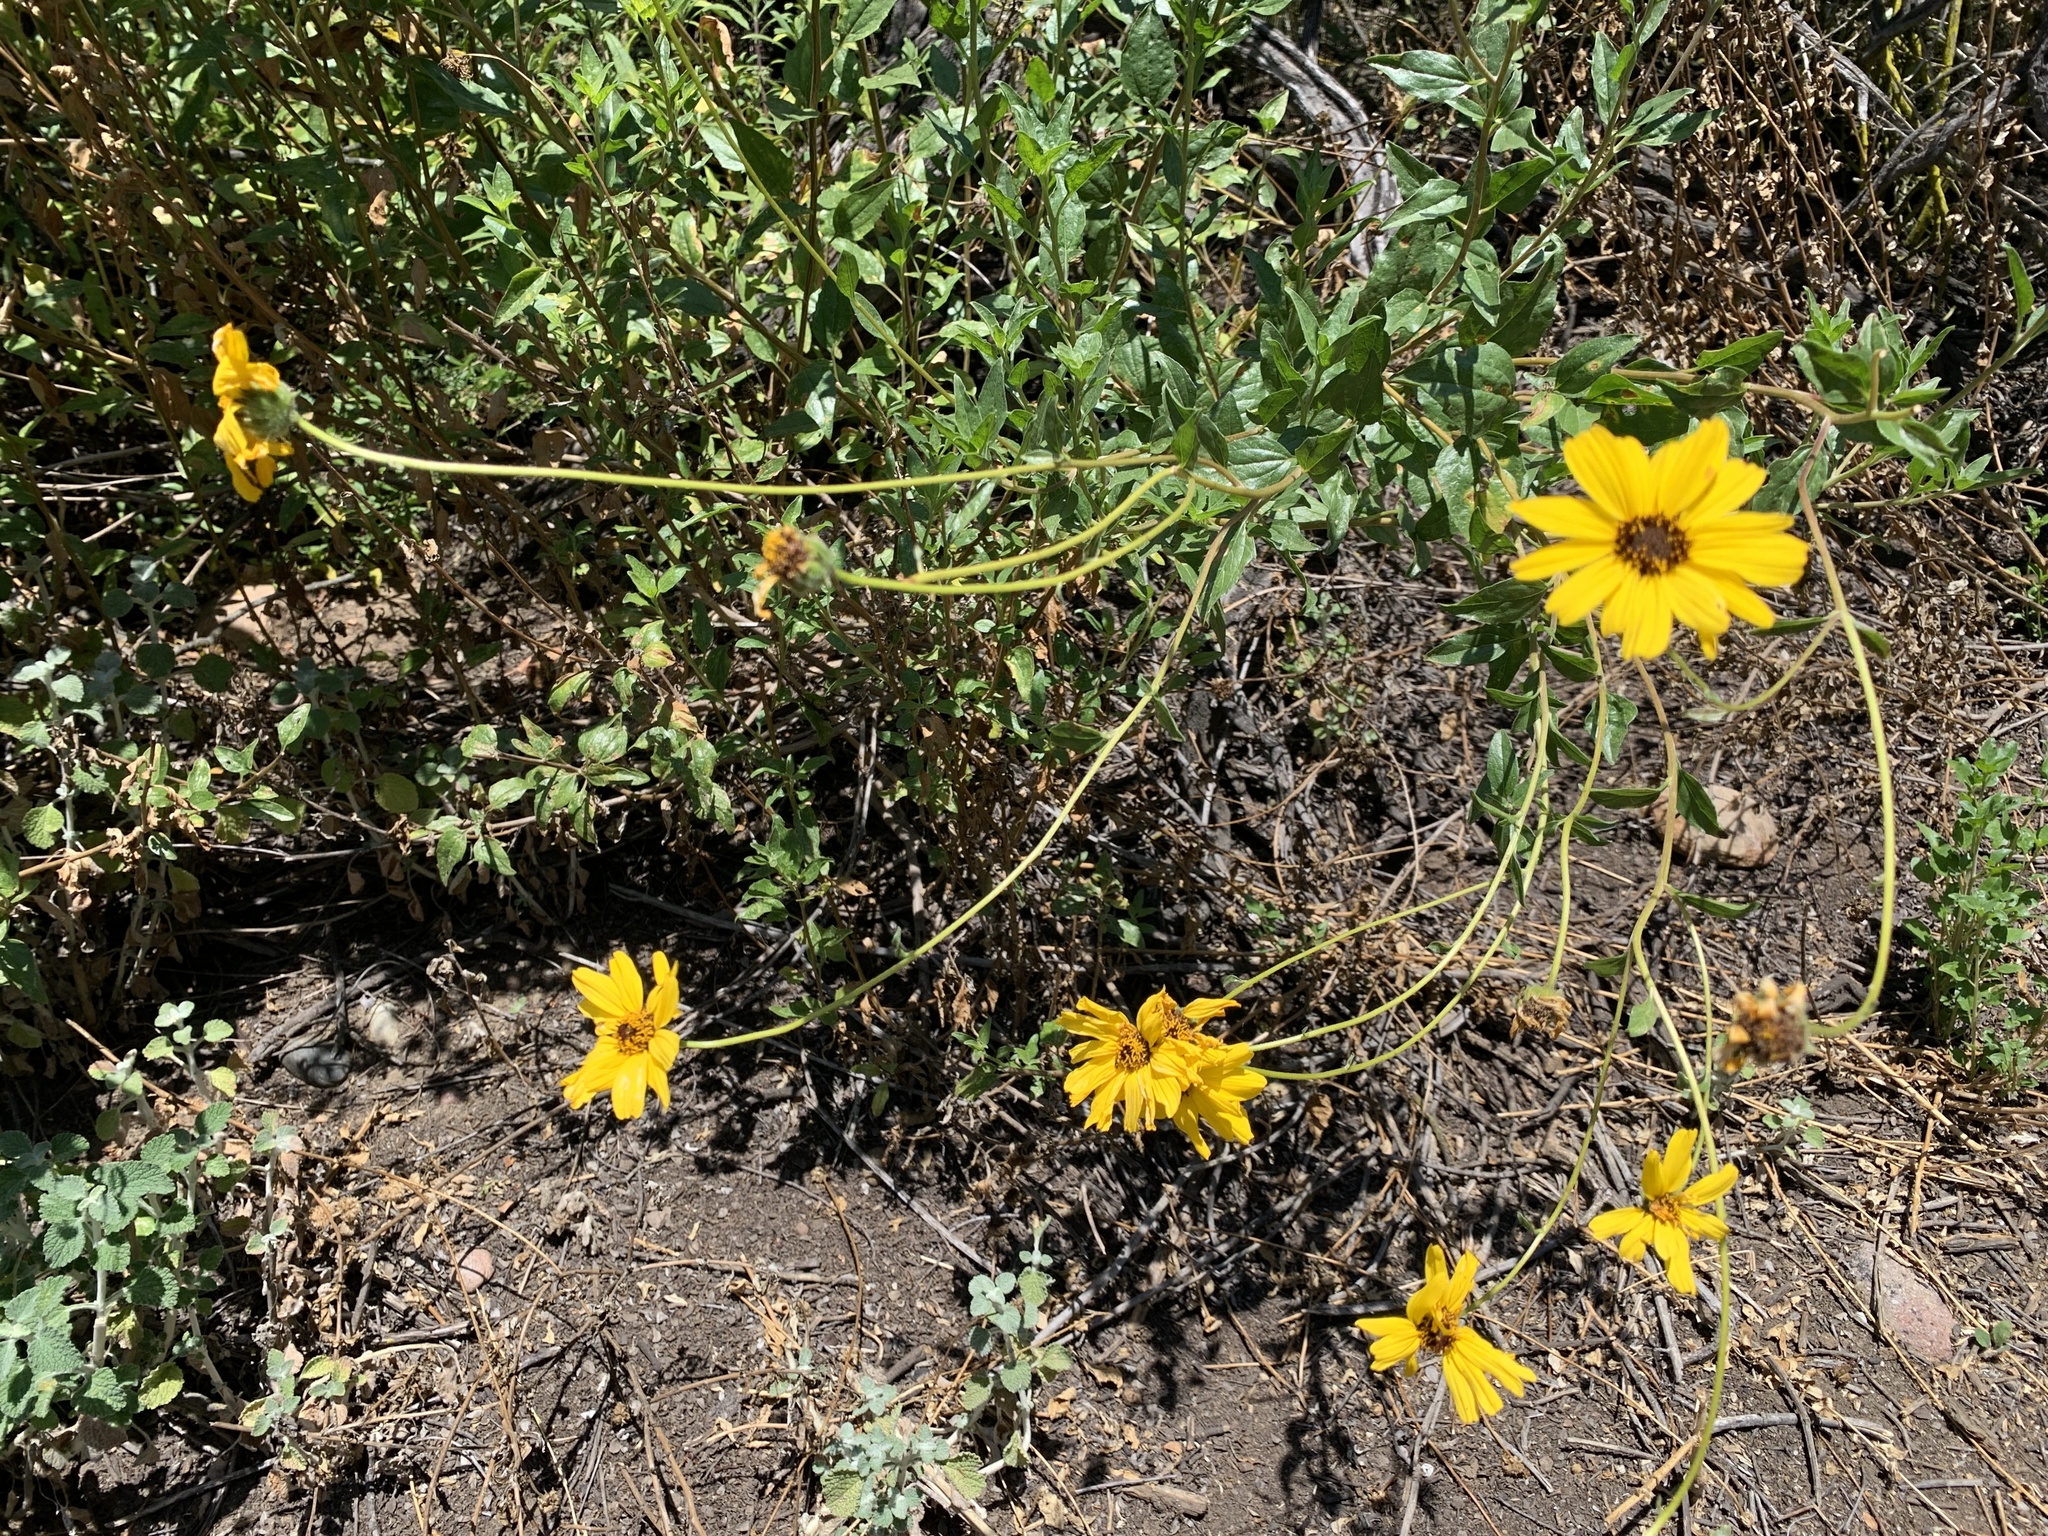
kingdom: Plantae
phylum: Tracheophyta
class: Magnoliopsida
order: Asterales
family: Asteraceae
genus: Encelia
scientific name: Encelia californica
